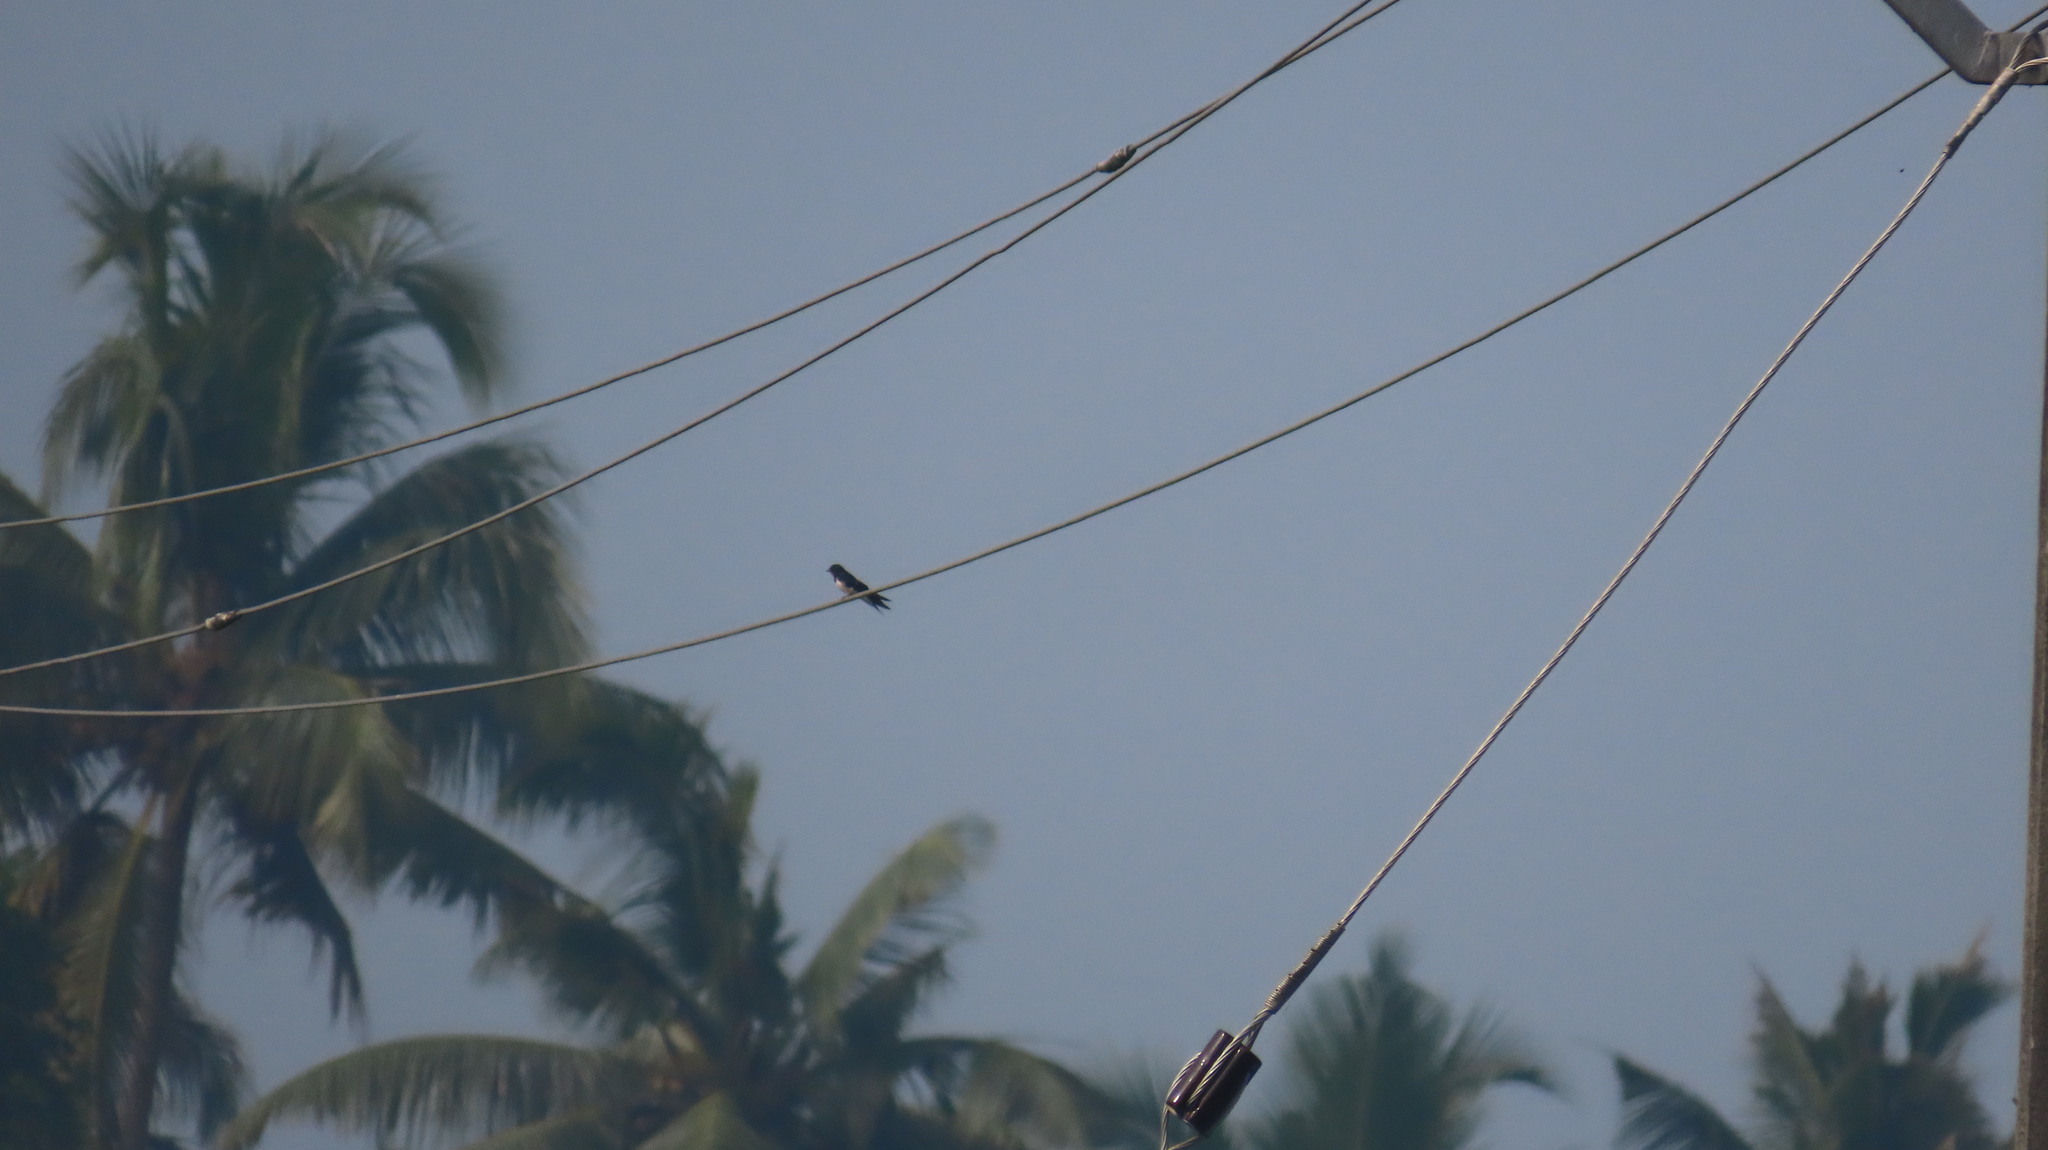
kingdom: Animalia
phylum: Chordata
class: Aves
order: Passeriformes
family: Hirundinidae
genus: Hirundo
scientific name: Hirundo rustica
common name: Barn swallow
